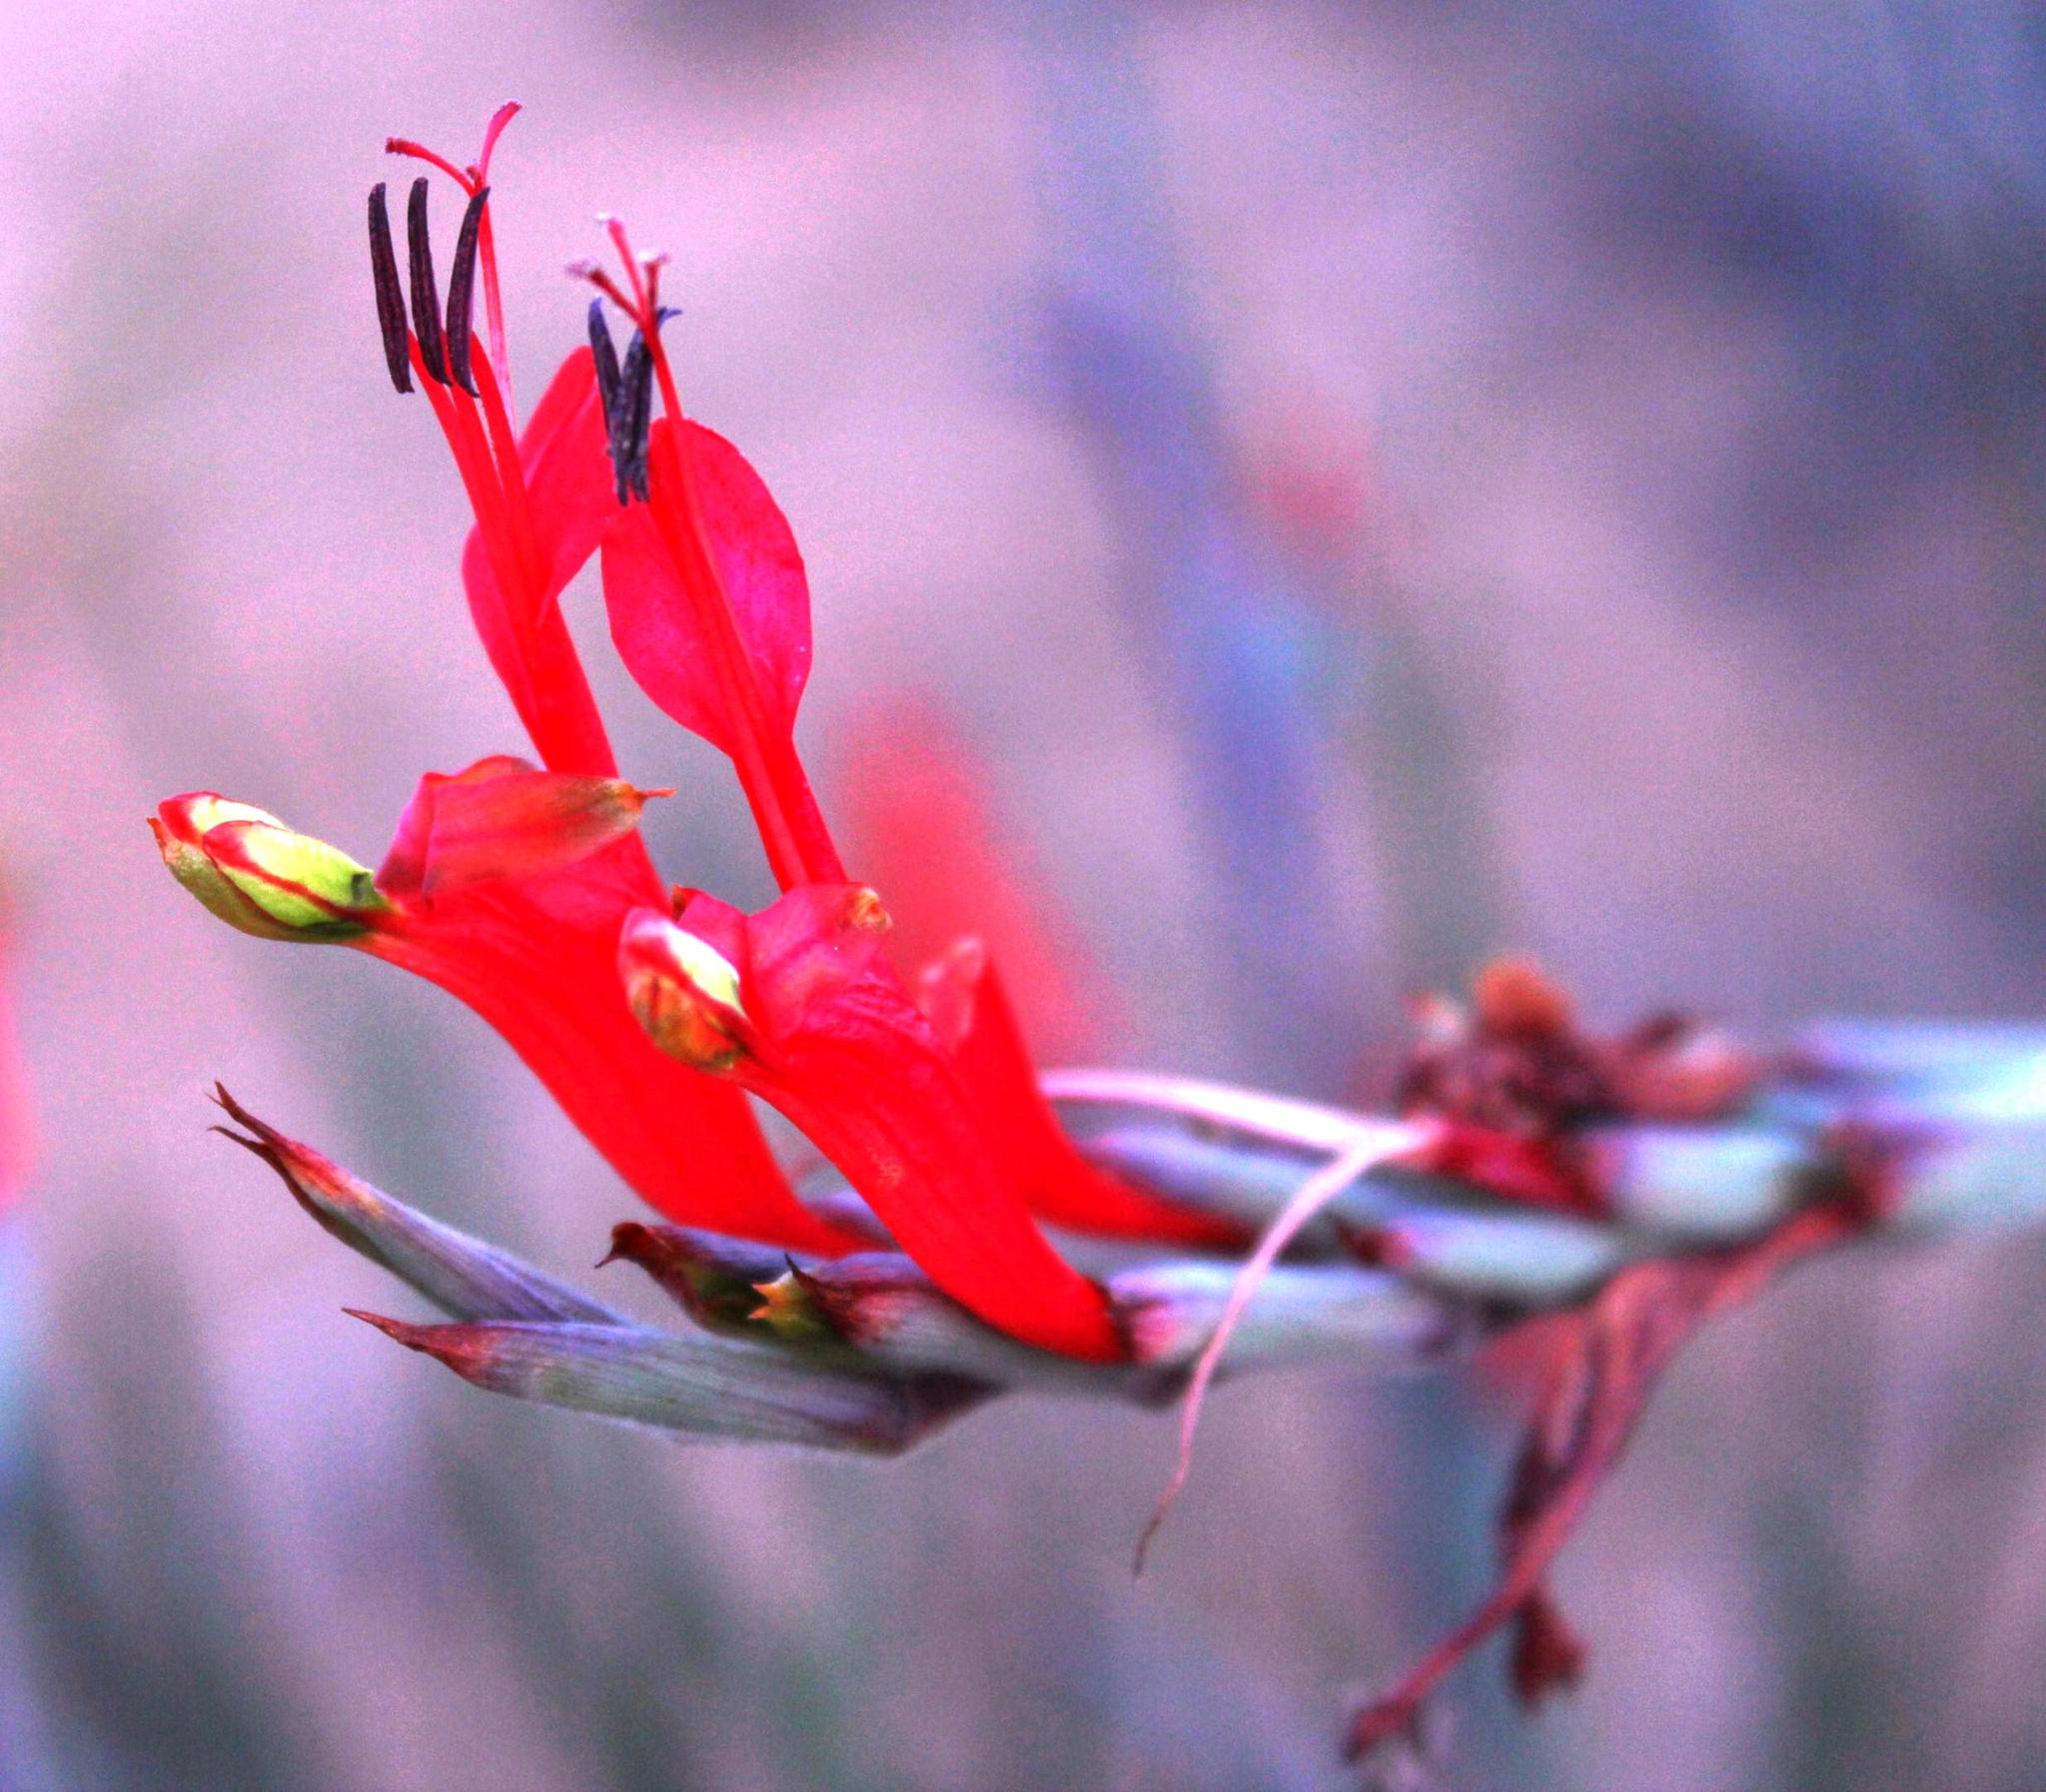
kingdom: Plantae
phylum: Tracheophyta
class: Liliopsida
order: Asparagales
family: Iridaceae
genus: Babiana
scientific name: Babiana hirsuta
